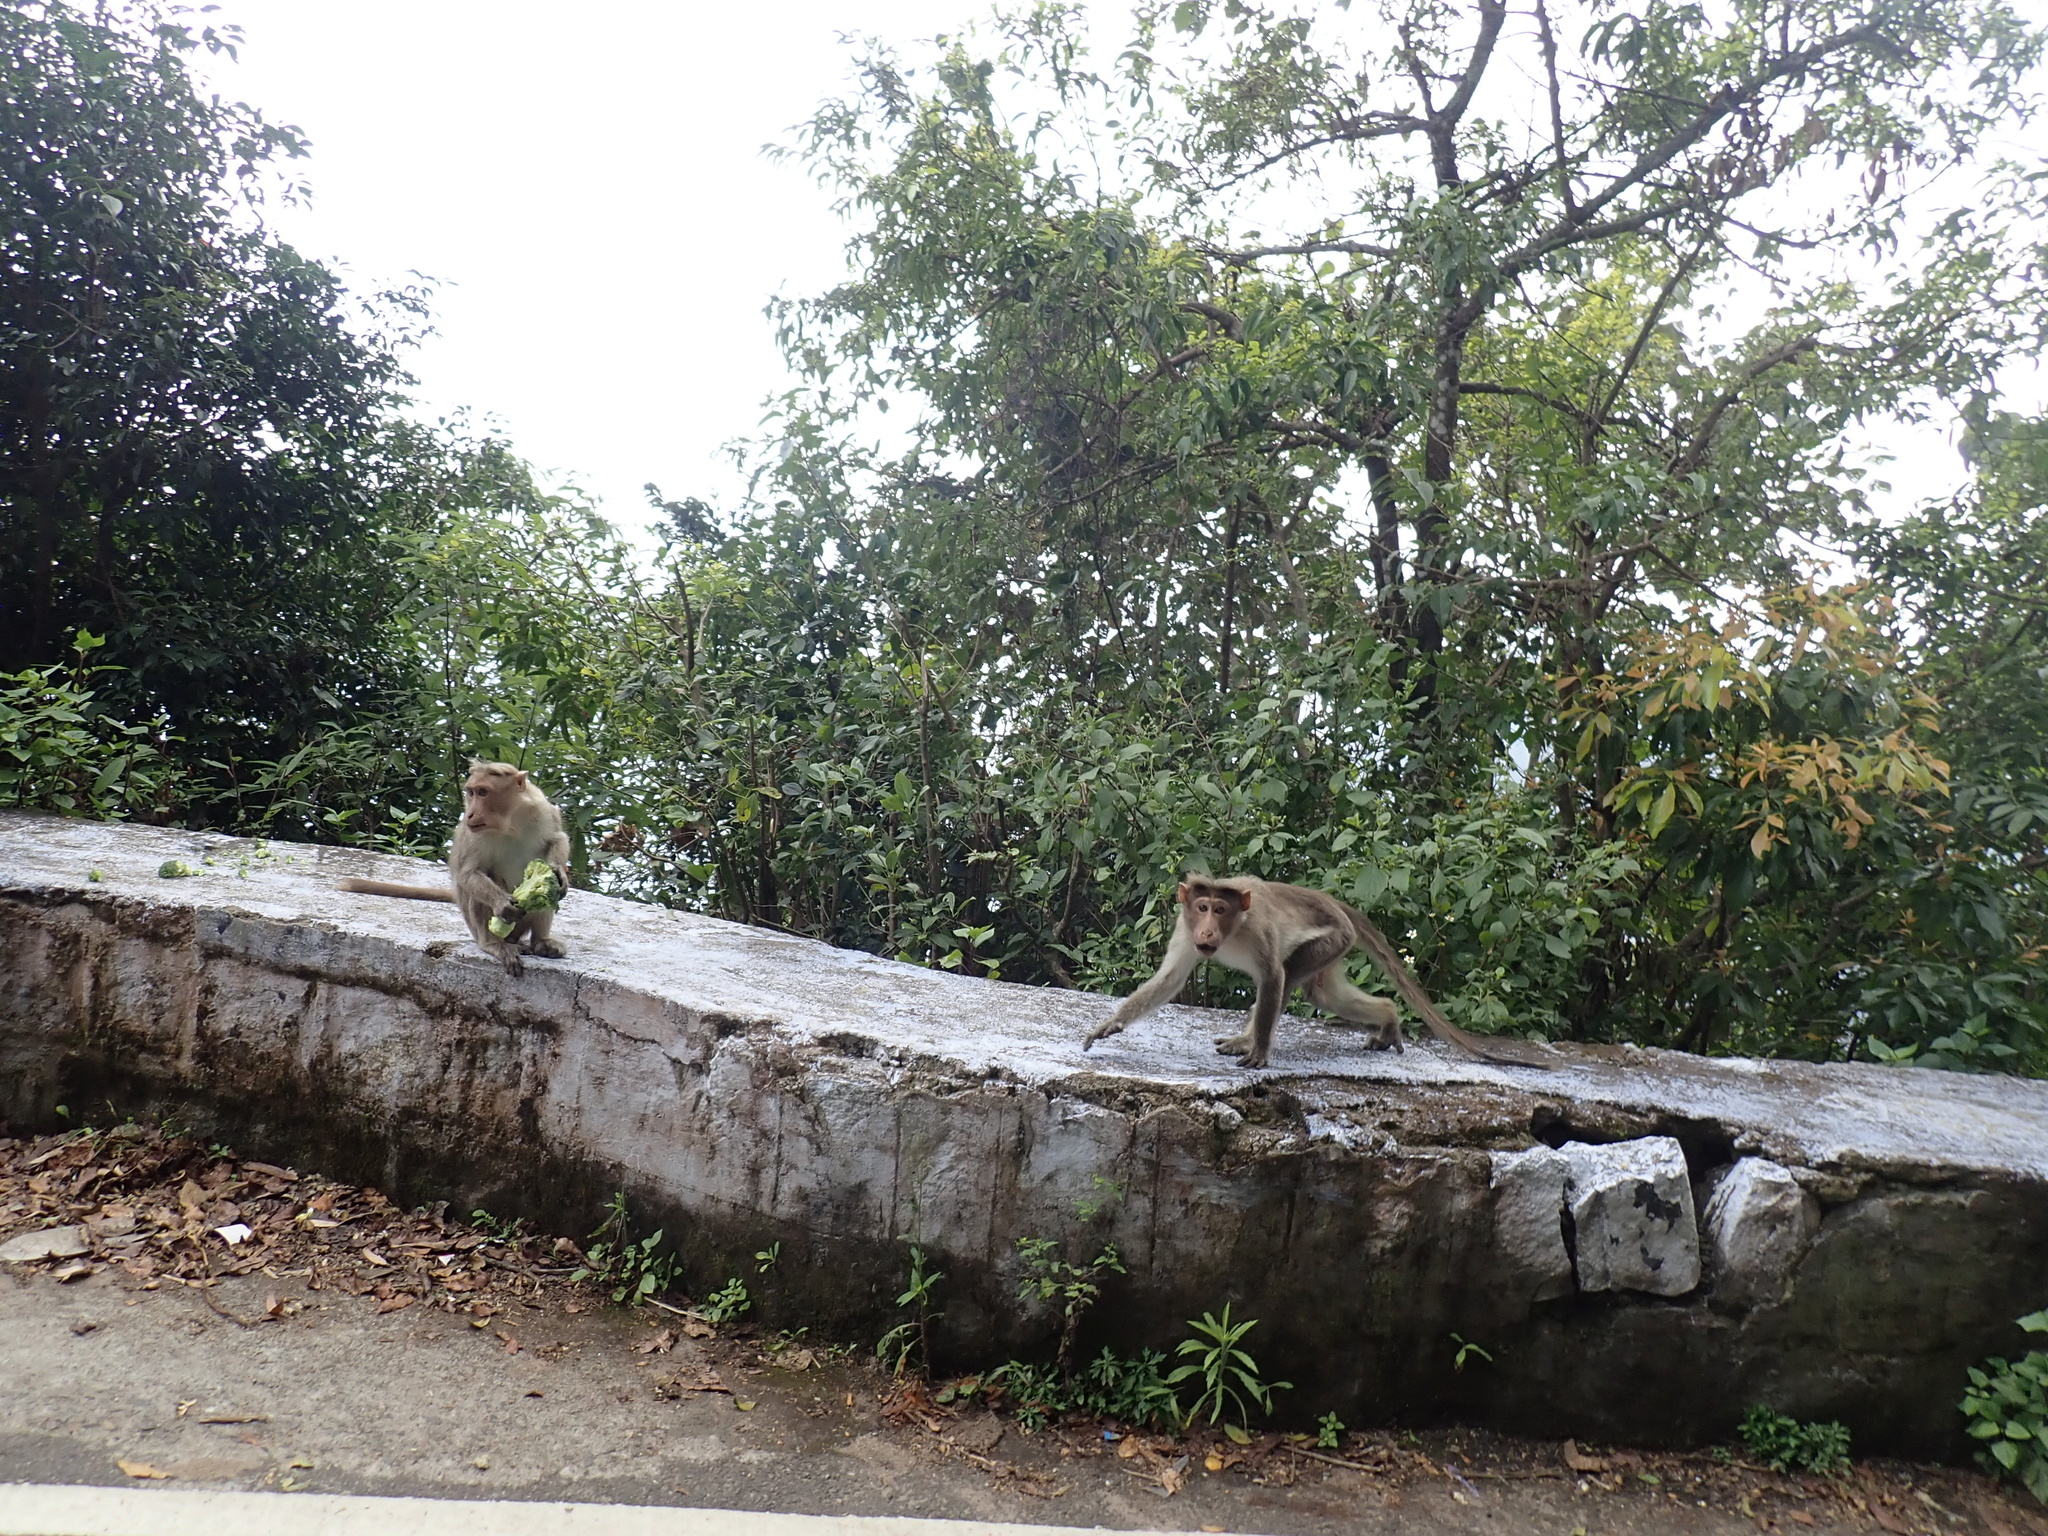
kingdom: Animalia
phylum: Chordata
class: Mammalia
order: Primates
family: Cercopithecidae
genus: Macaca
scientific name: Macaca radiata
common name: Bonnet macaque
